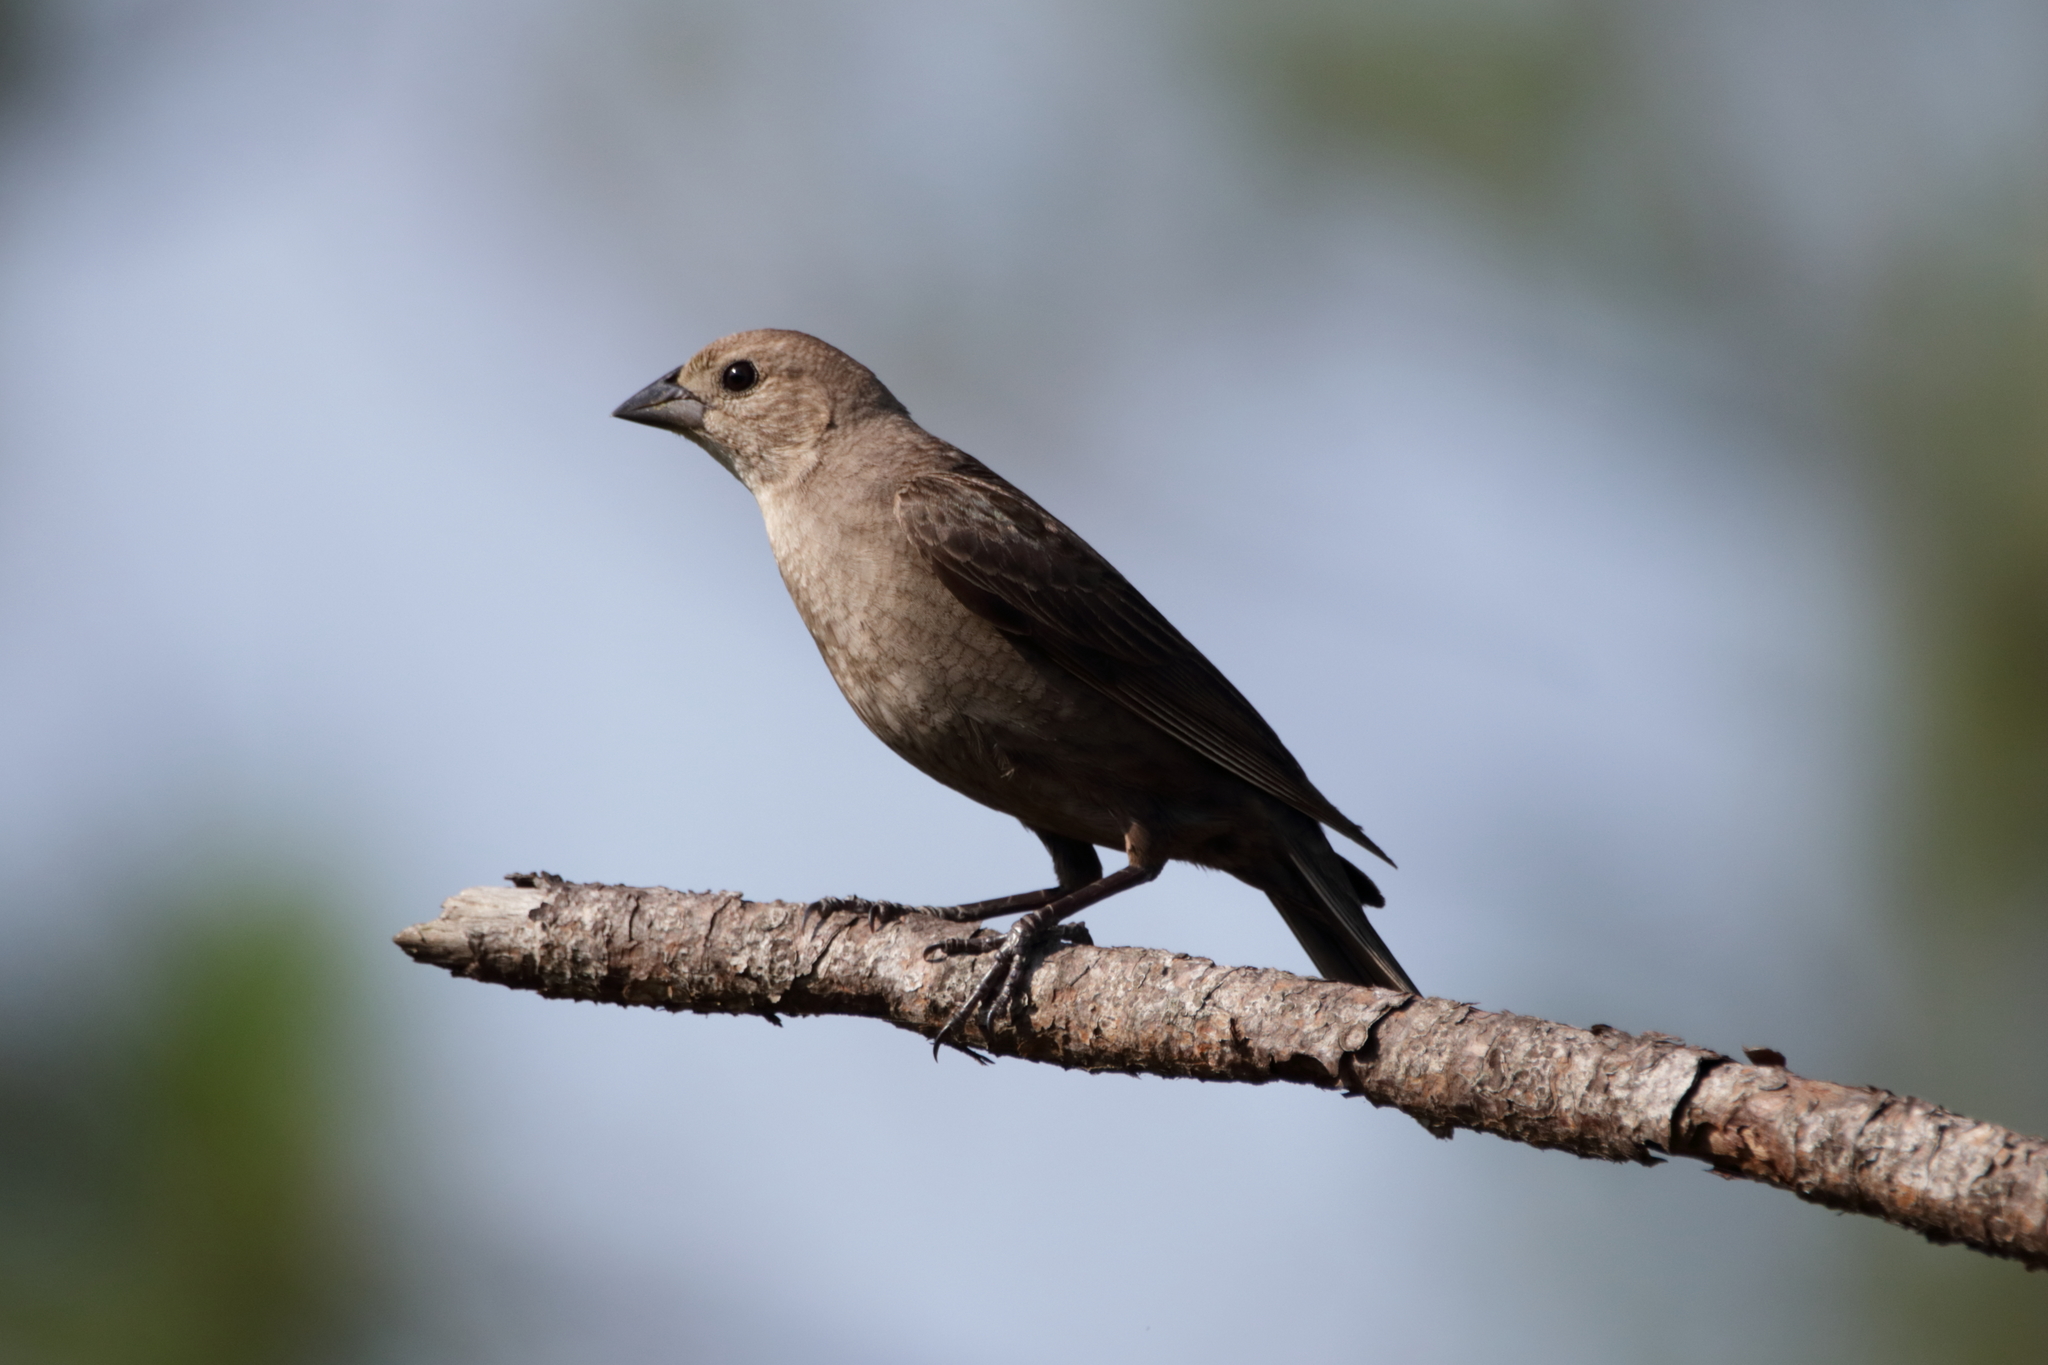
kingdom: Animalia
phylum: Chordata
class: Aves
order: Passeriformes
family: Icteridae
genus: Molothrus
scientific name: Molothrus ater
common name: Brown-headed cowbird
